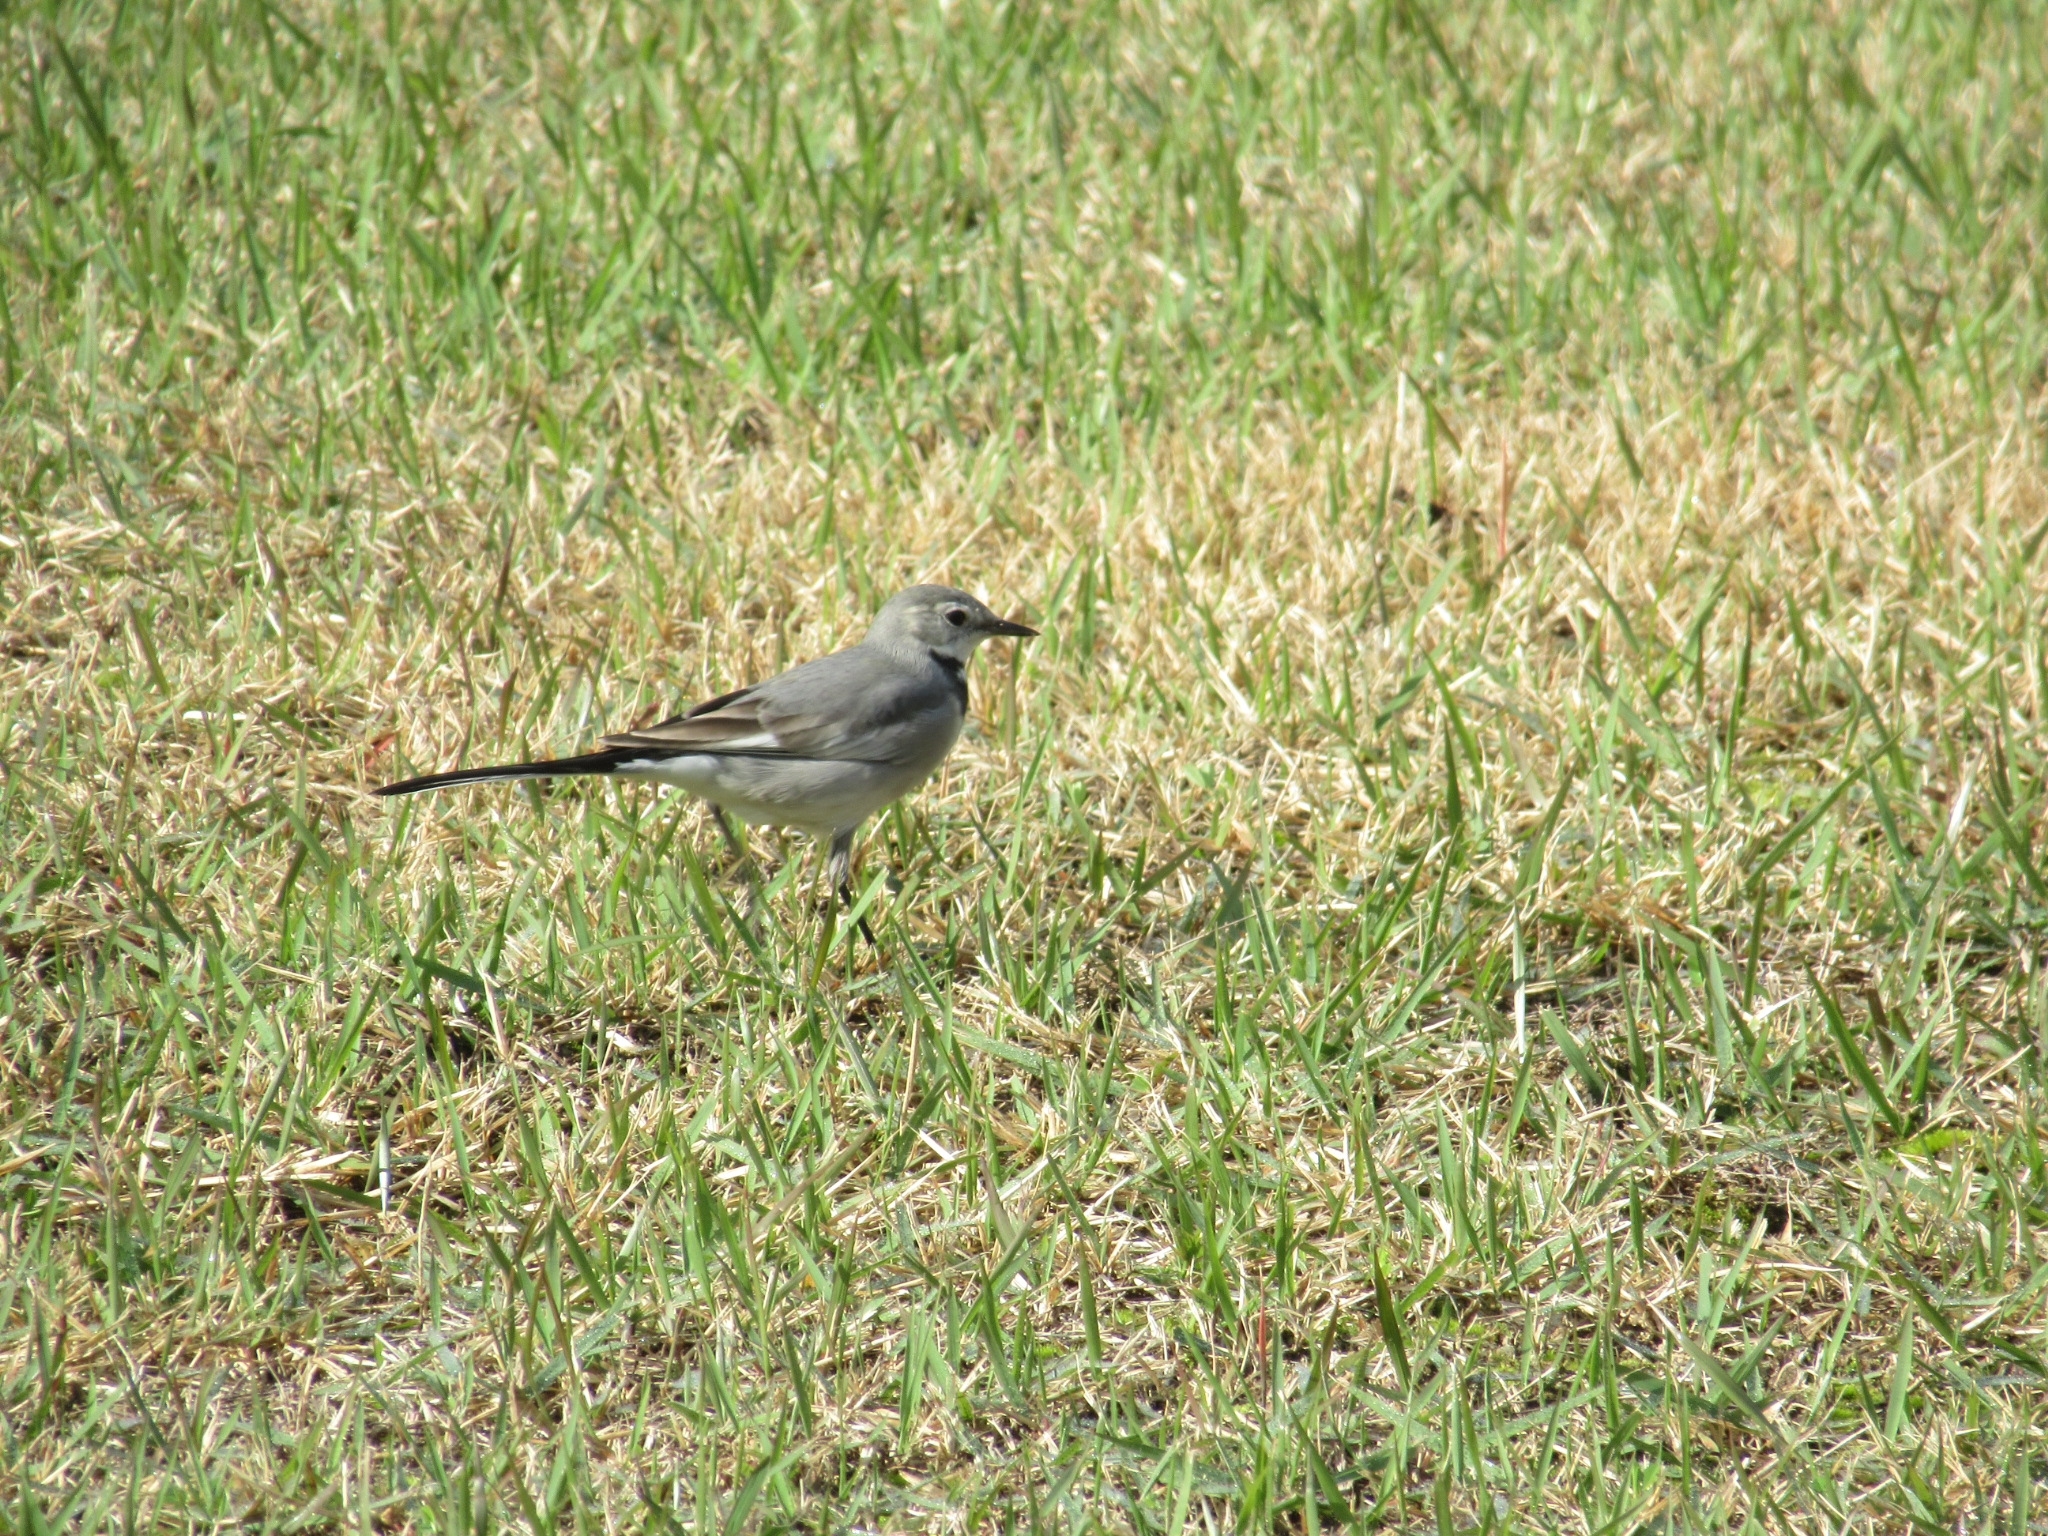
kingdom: Animalia
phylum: Chordata
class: Aves
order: Passeriformes
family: Motacillidae
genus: Motacilla
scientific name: Motacilla alba
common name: White wagtail
